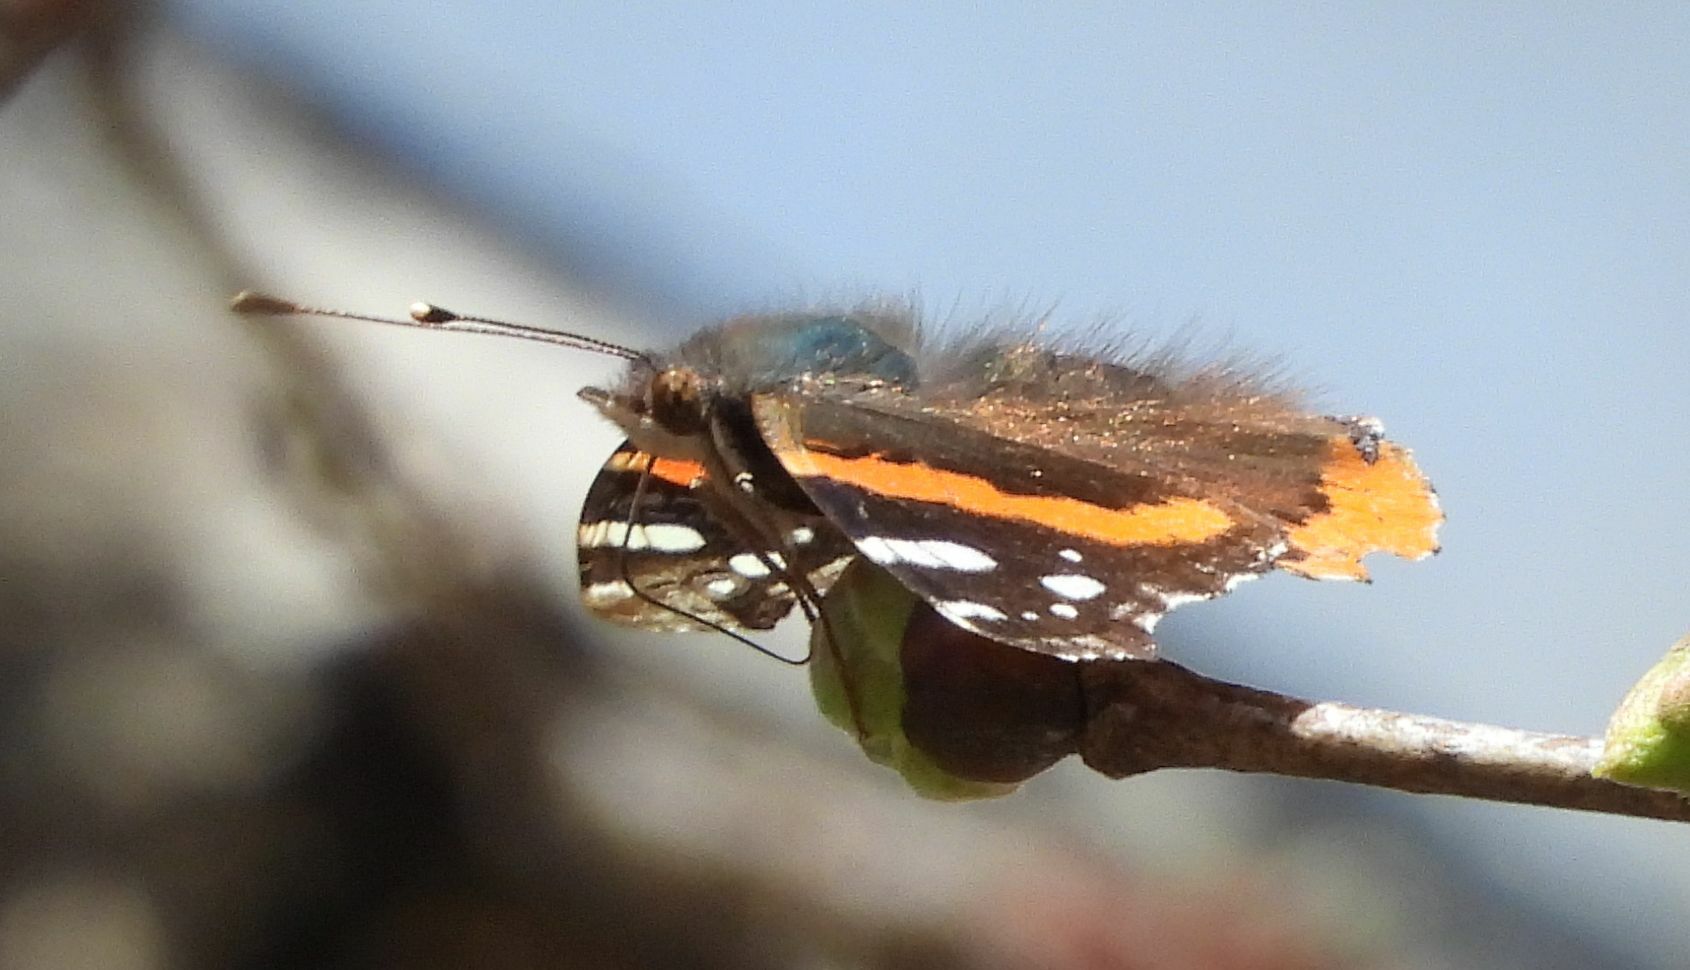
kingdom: Animalia
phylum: Arthropoda
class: Insecta
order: Lepidoptera
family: Nymphalidae
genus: Vanessa
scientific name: Vanessa atalanta
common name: Red admiral
